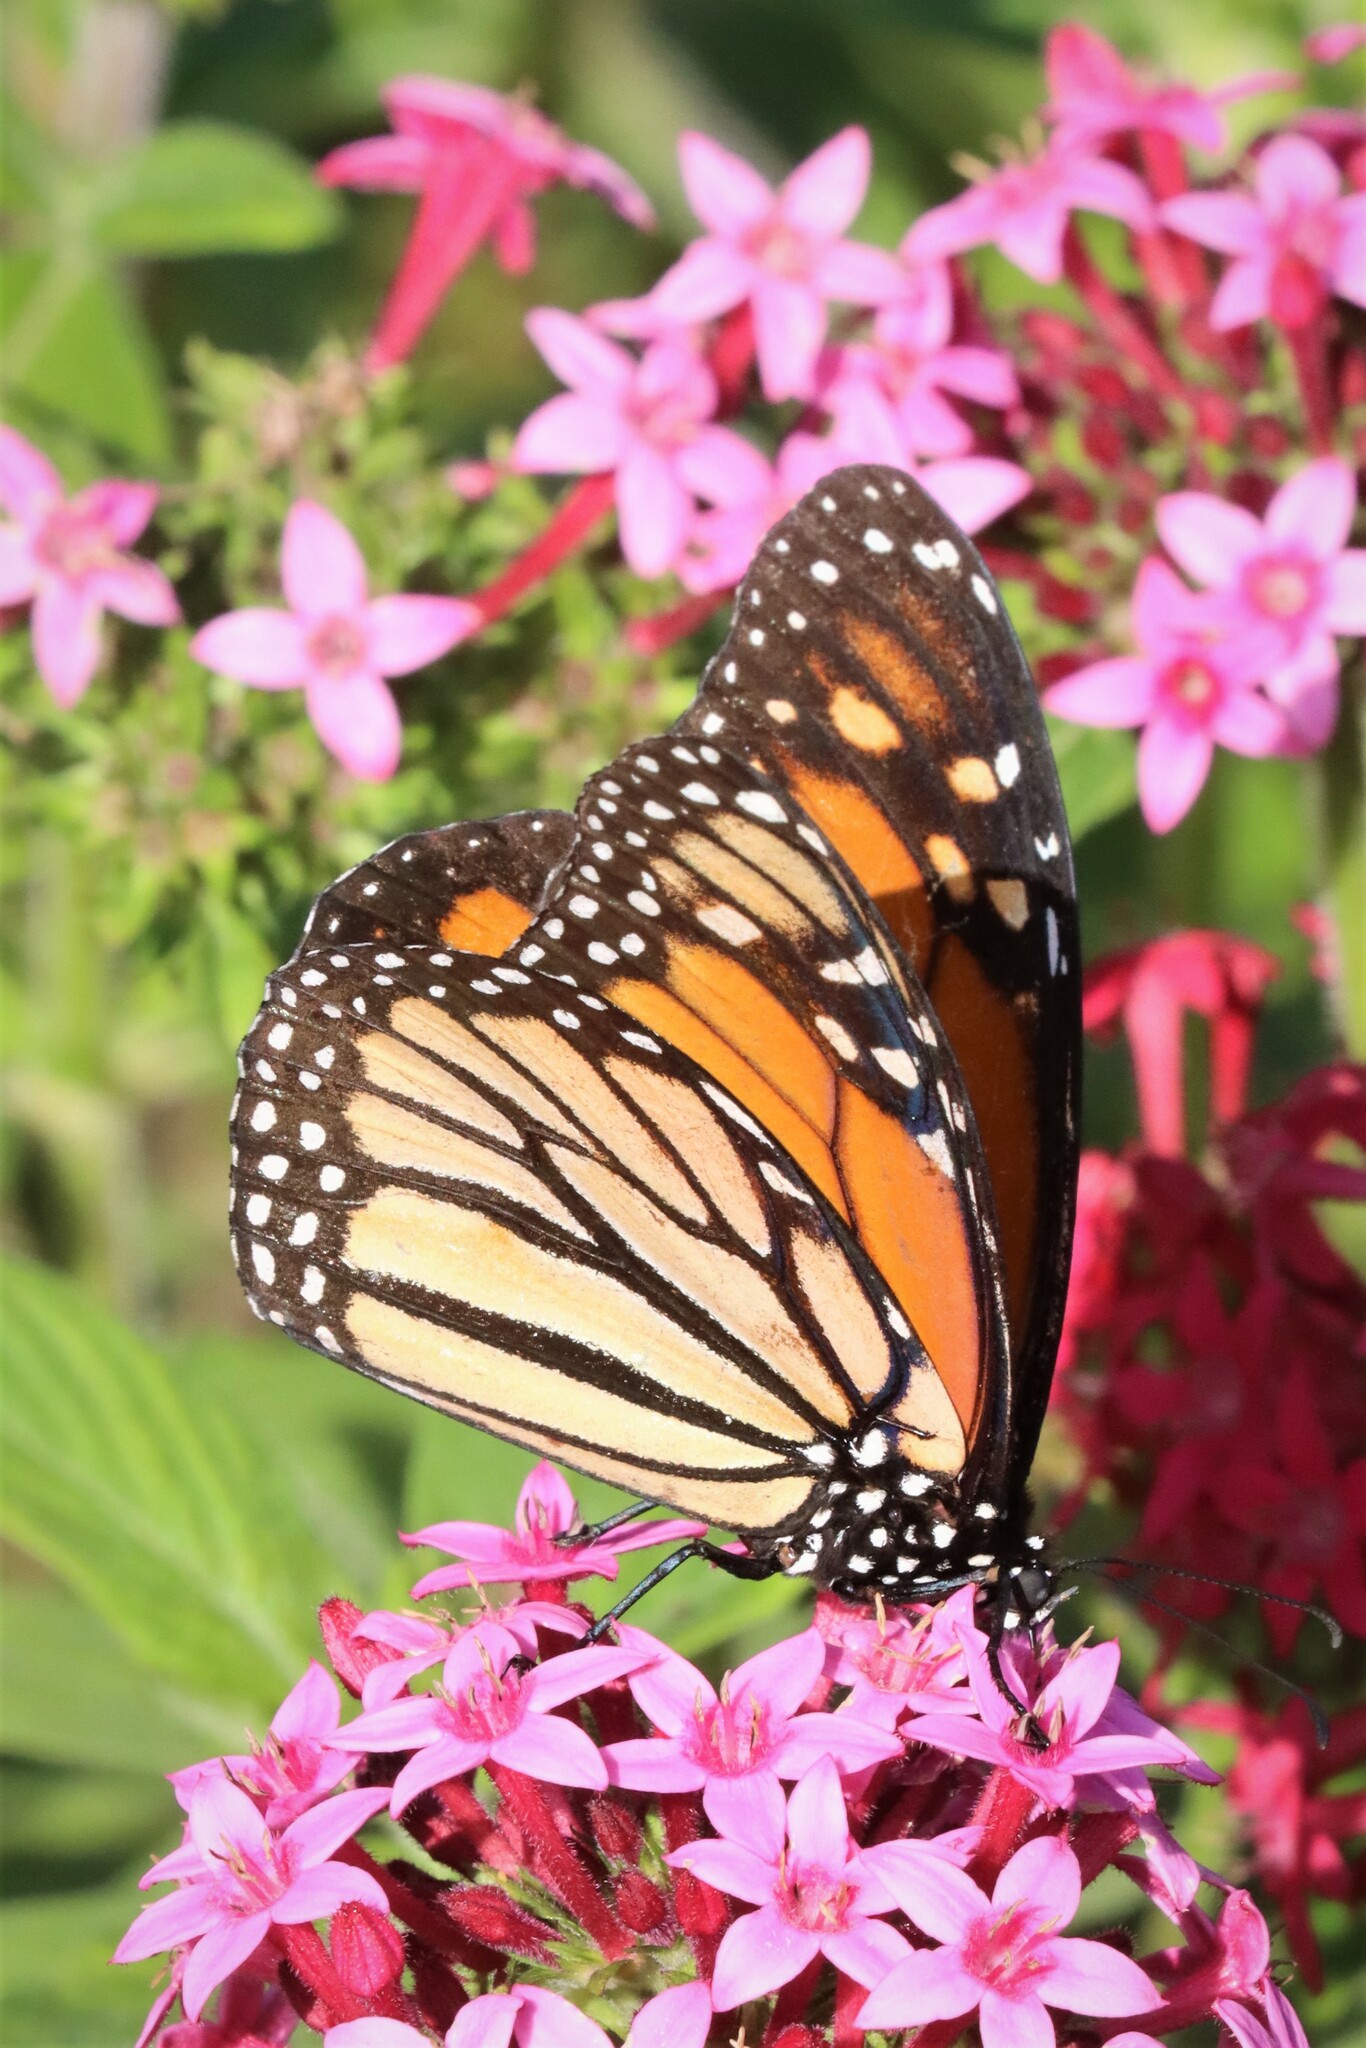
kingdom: Animalia
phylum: Arthropoda
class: Insecta
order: Lepidoptera
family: Nymphalidae
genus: Danaus
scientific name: Danaus plexippus
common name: Monarch
